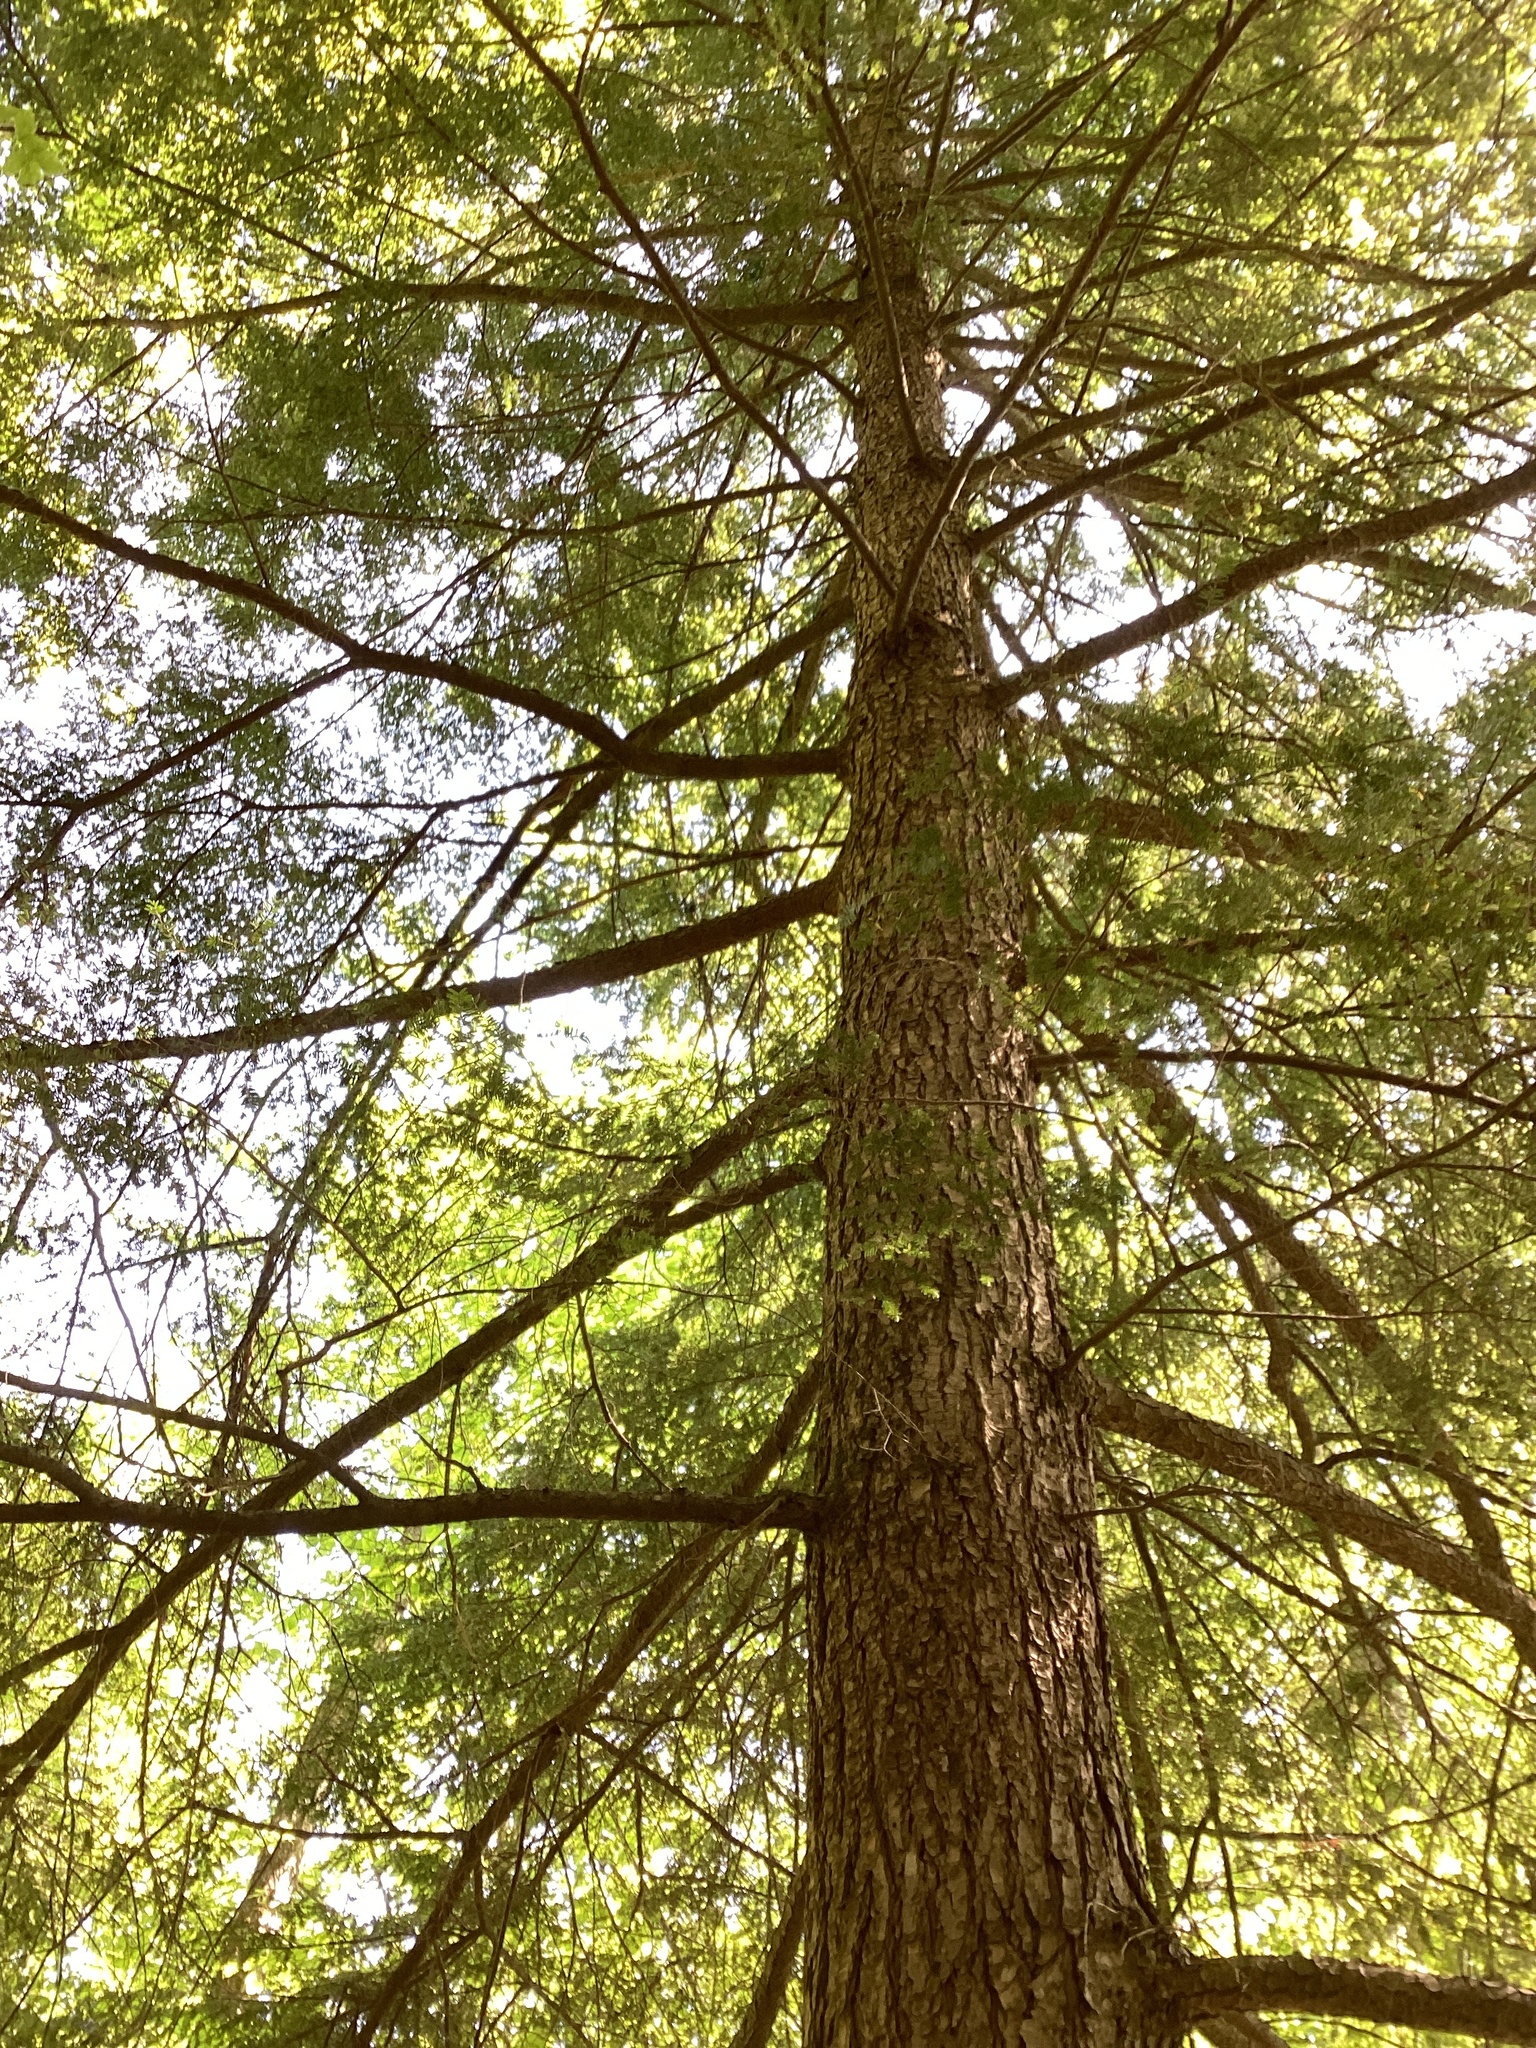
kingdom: Plantae
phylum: Tracheophyta
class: Pinopsida
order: Pinales
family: Pinaceae
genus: Tsuga
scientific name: Tsuga canadensis
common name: Eastern hemlock
